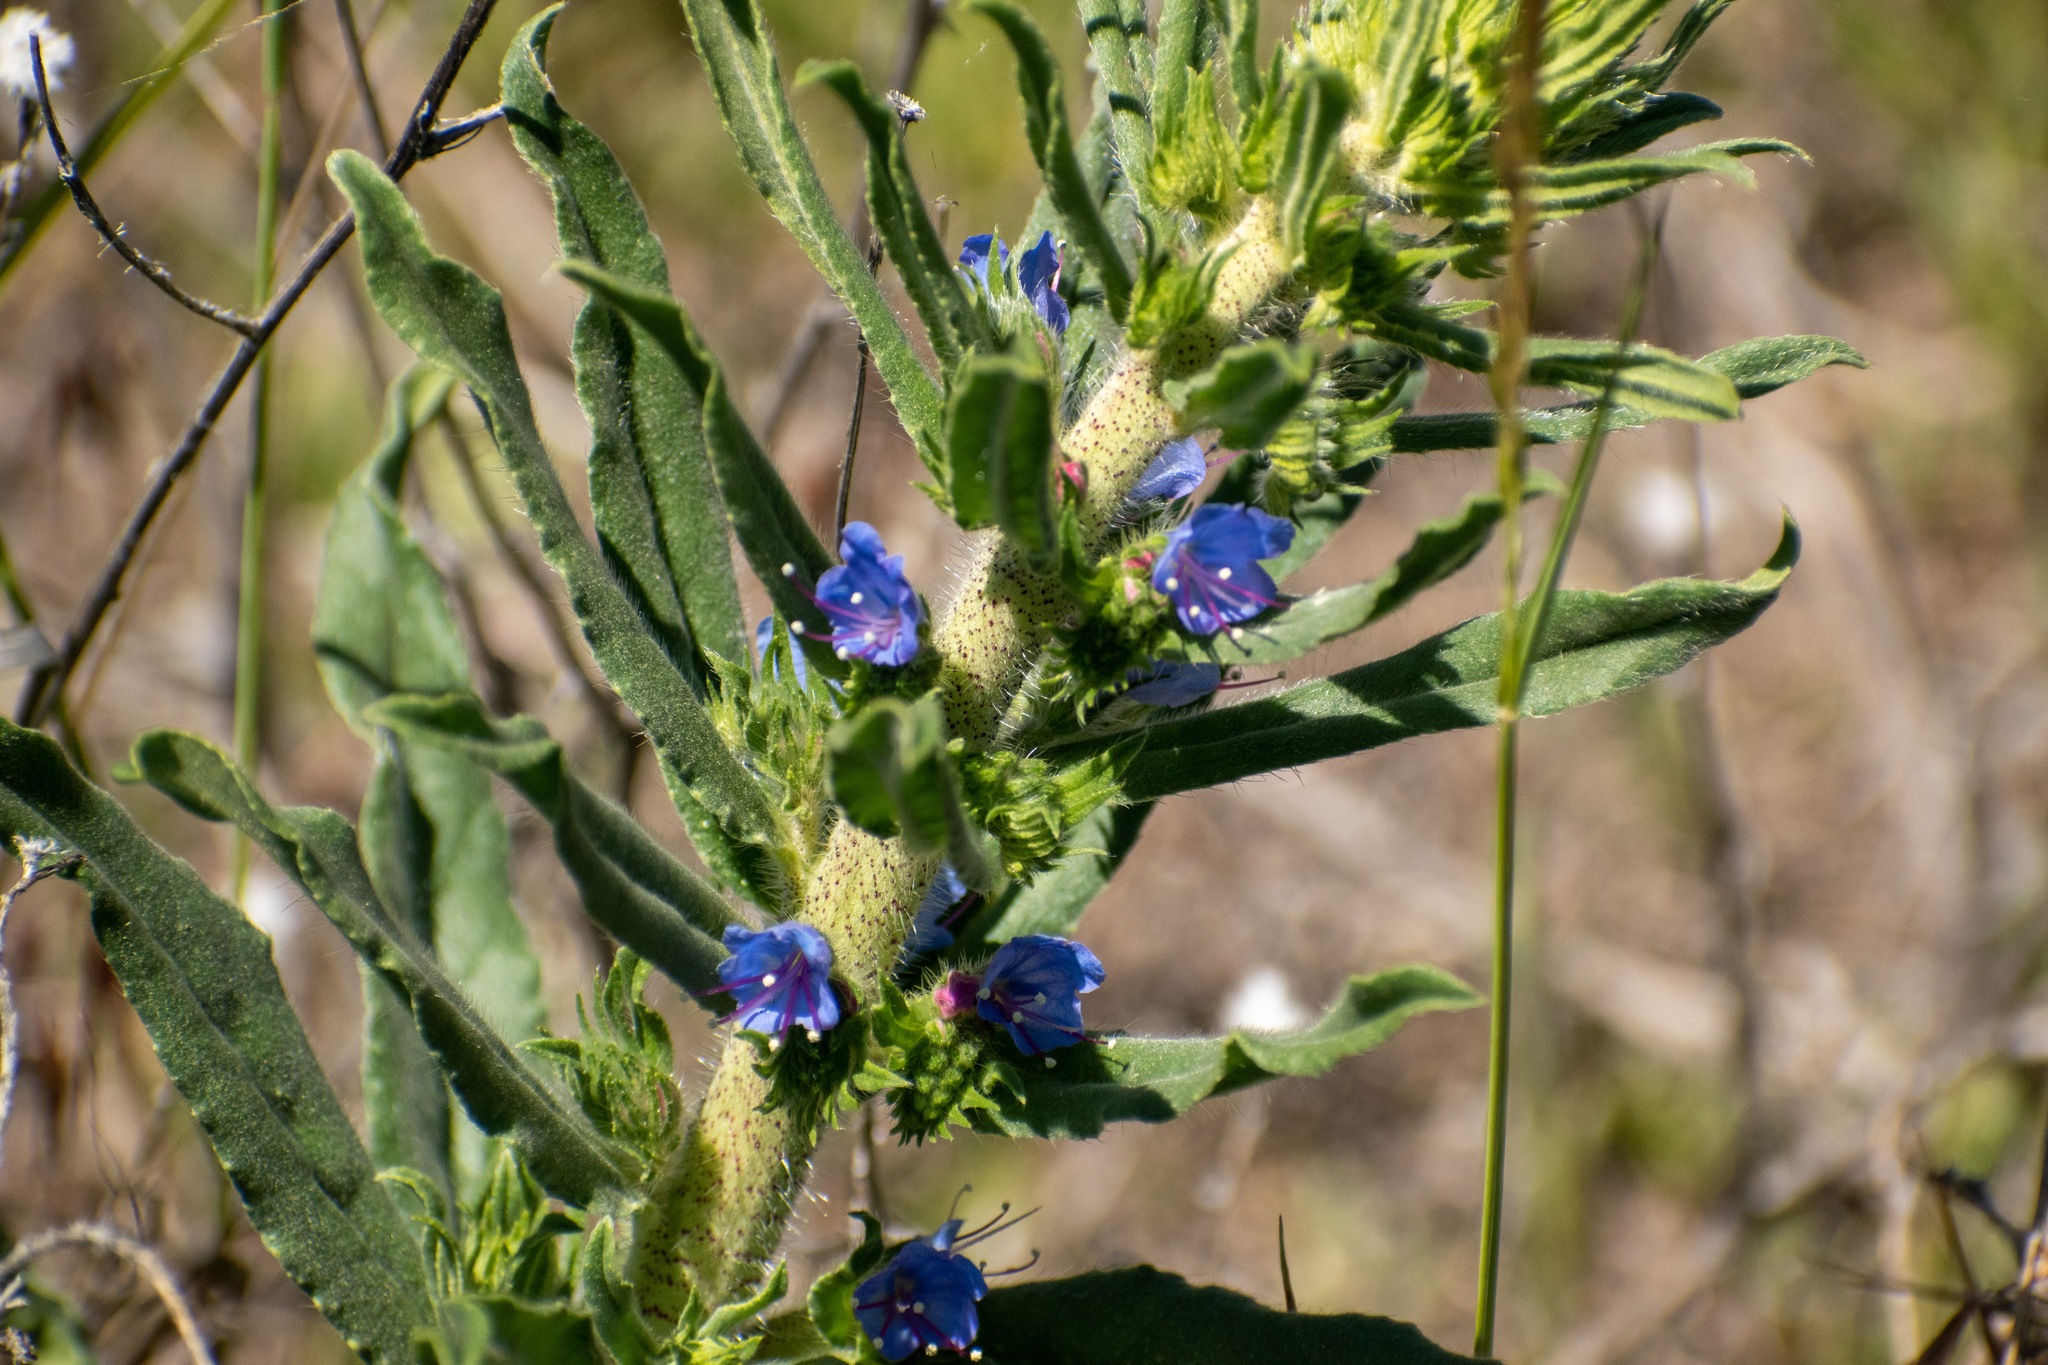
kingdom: Plantae
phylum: Tracheophyta
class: Magnoliopsida
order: Boraginales
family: Boraginaceae
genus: Echium
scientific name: Echium vulgare
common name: Common viper's bugloss
